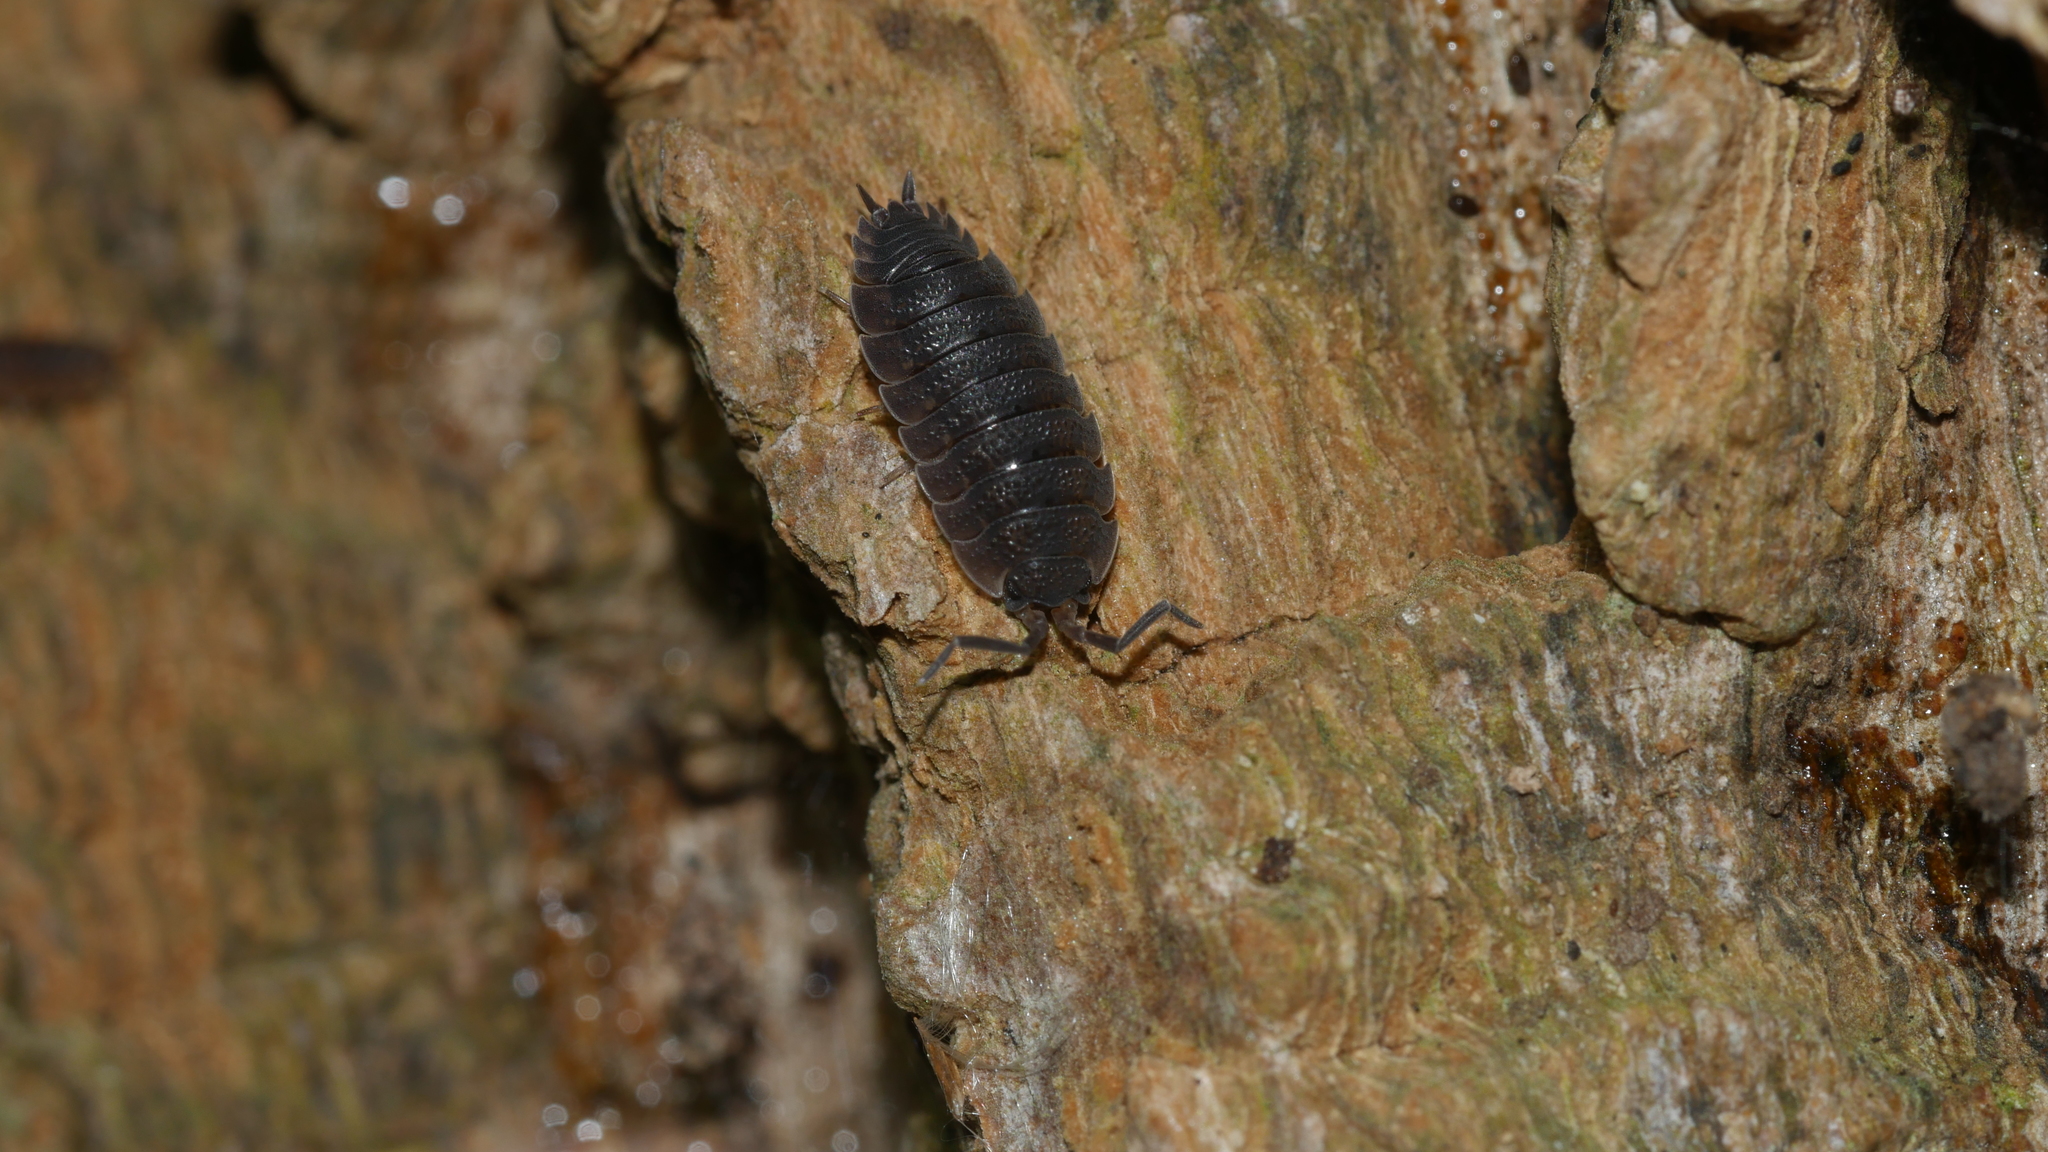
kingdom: Animalia
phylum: Arthropoda
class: Malacostraca
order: Isopoda
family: Porcellionidae
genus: Porcellio
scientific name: Porcellio scaber
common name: Common rough woodlouse
